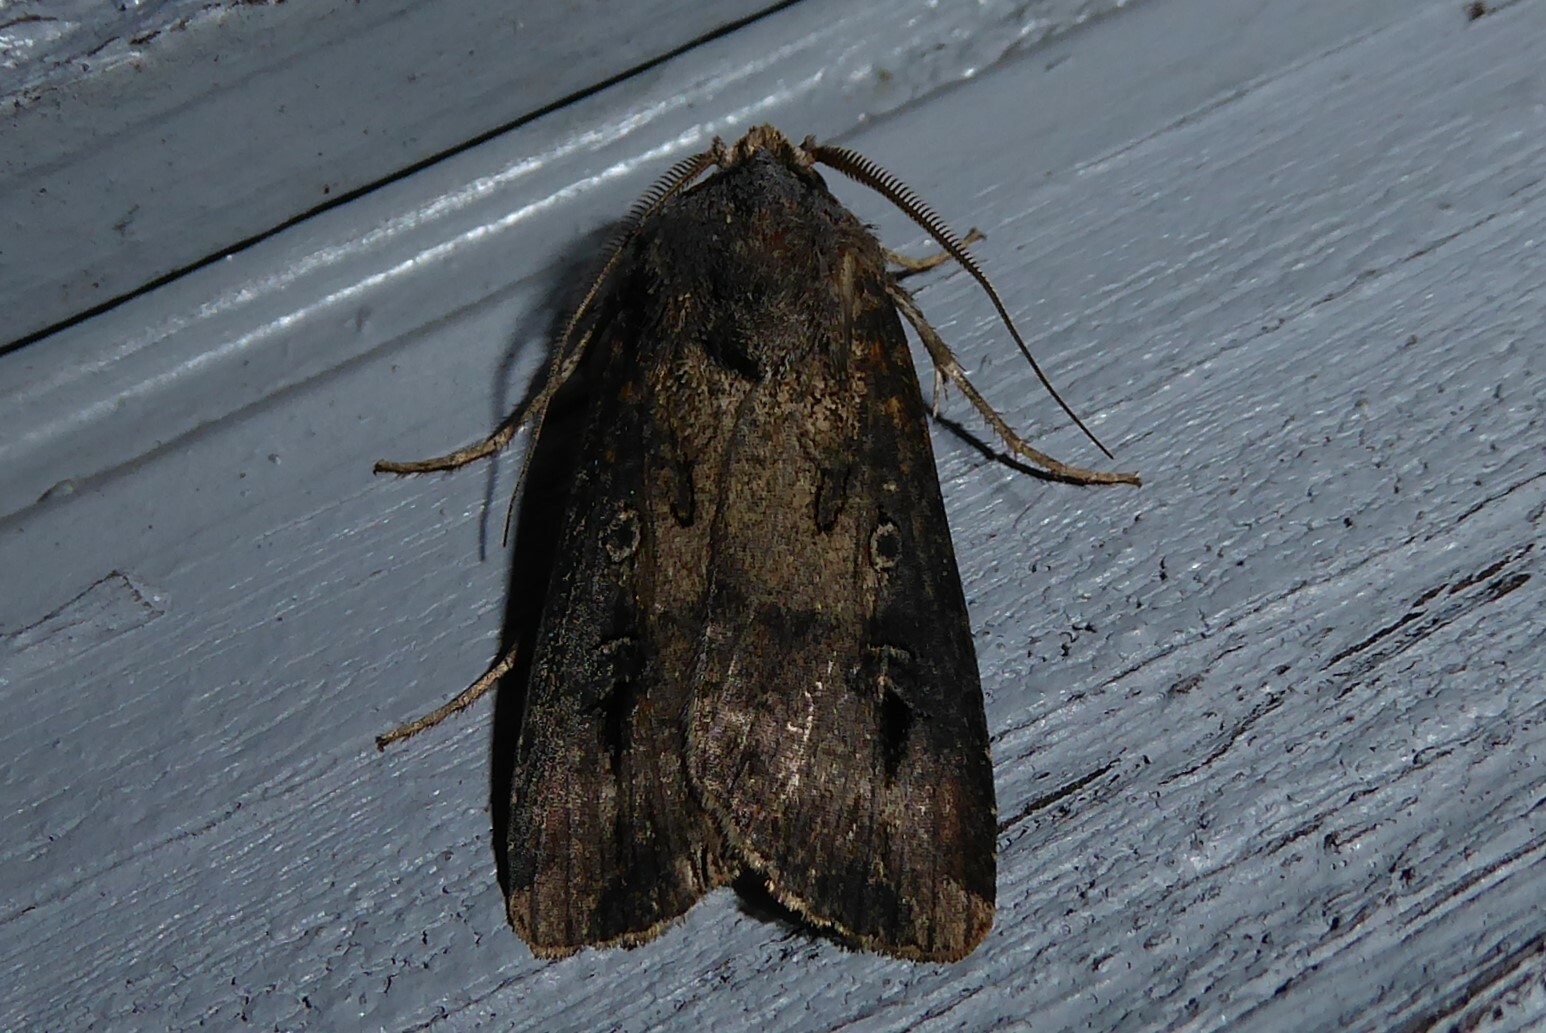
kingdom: Animalia
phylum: Arthropoda
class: Insecta
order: Lepidoptera
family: Noctuidae
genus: Agrotis
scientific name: Agrotis ipsilon
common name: Dark sword-grass
